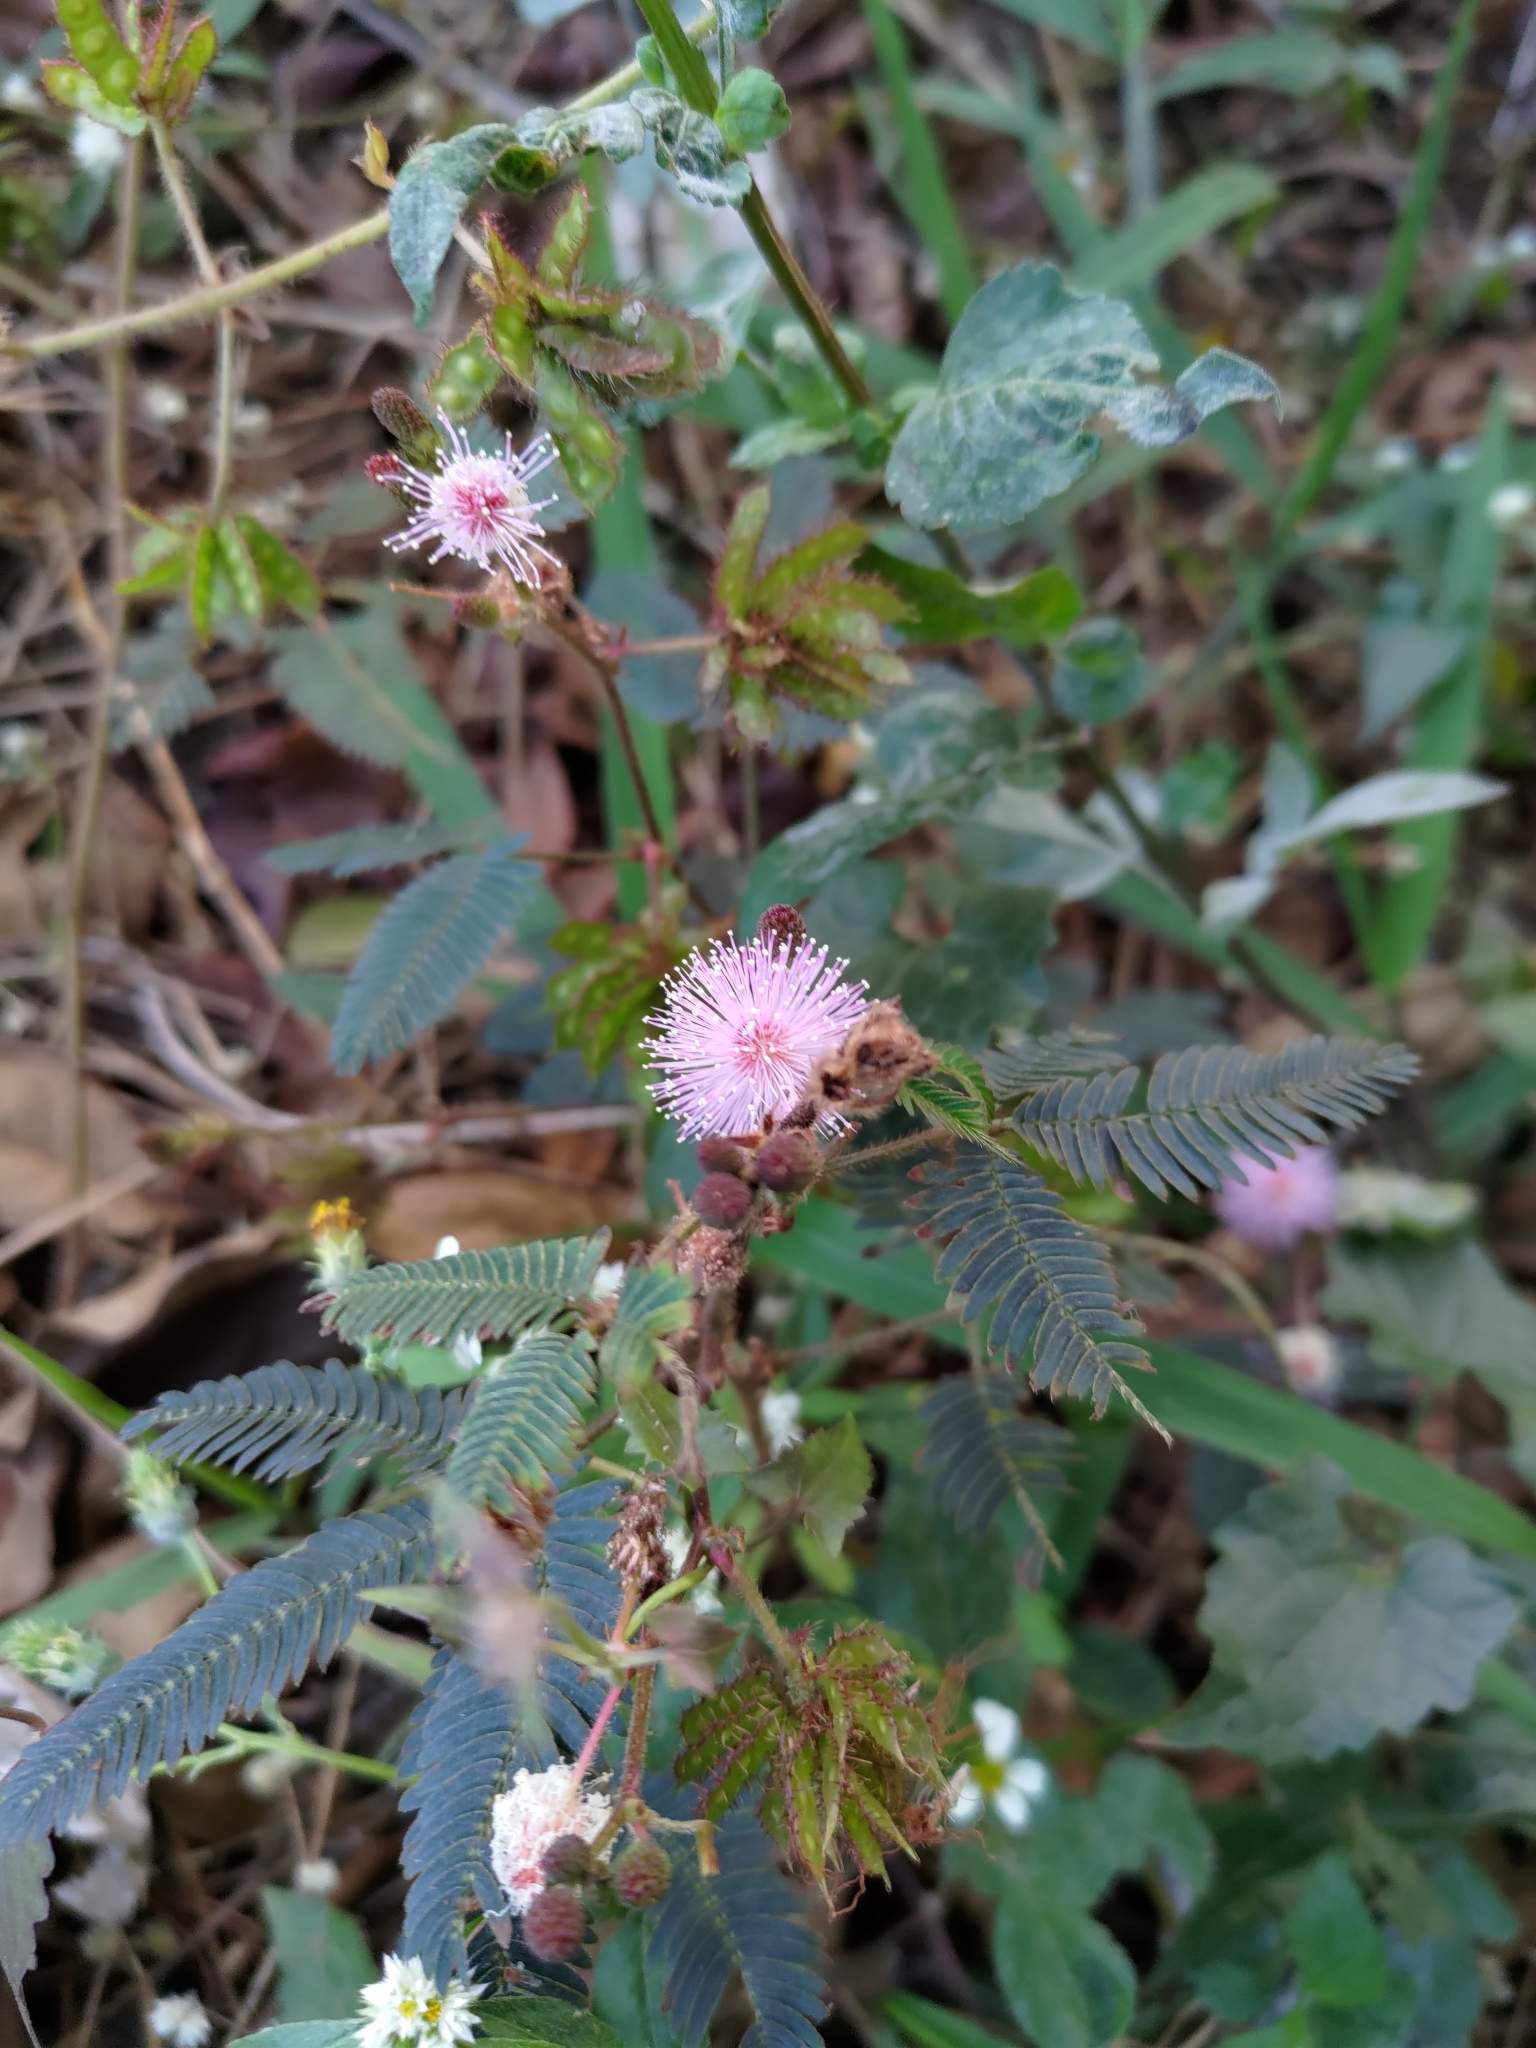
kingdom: Plantae
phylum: Tracheophyta
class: Magnoliopsida
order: Fabales
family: Fabaceae
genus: Mimosa
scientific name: Mimosa pudica
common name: Sensitive plant
